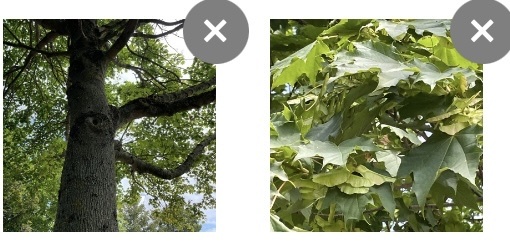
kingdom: Plantae
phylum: Tracheophyta
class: Magnoliopsida
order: Sapindales
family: Sapindaceae
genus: Acer
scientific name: Acer platanoides
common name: Norway maple
